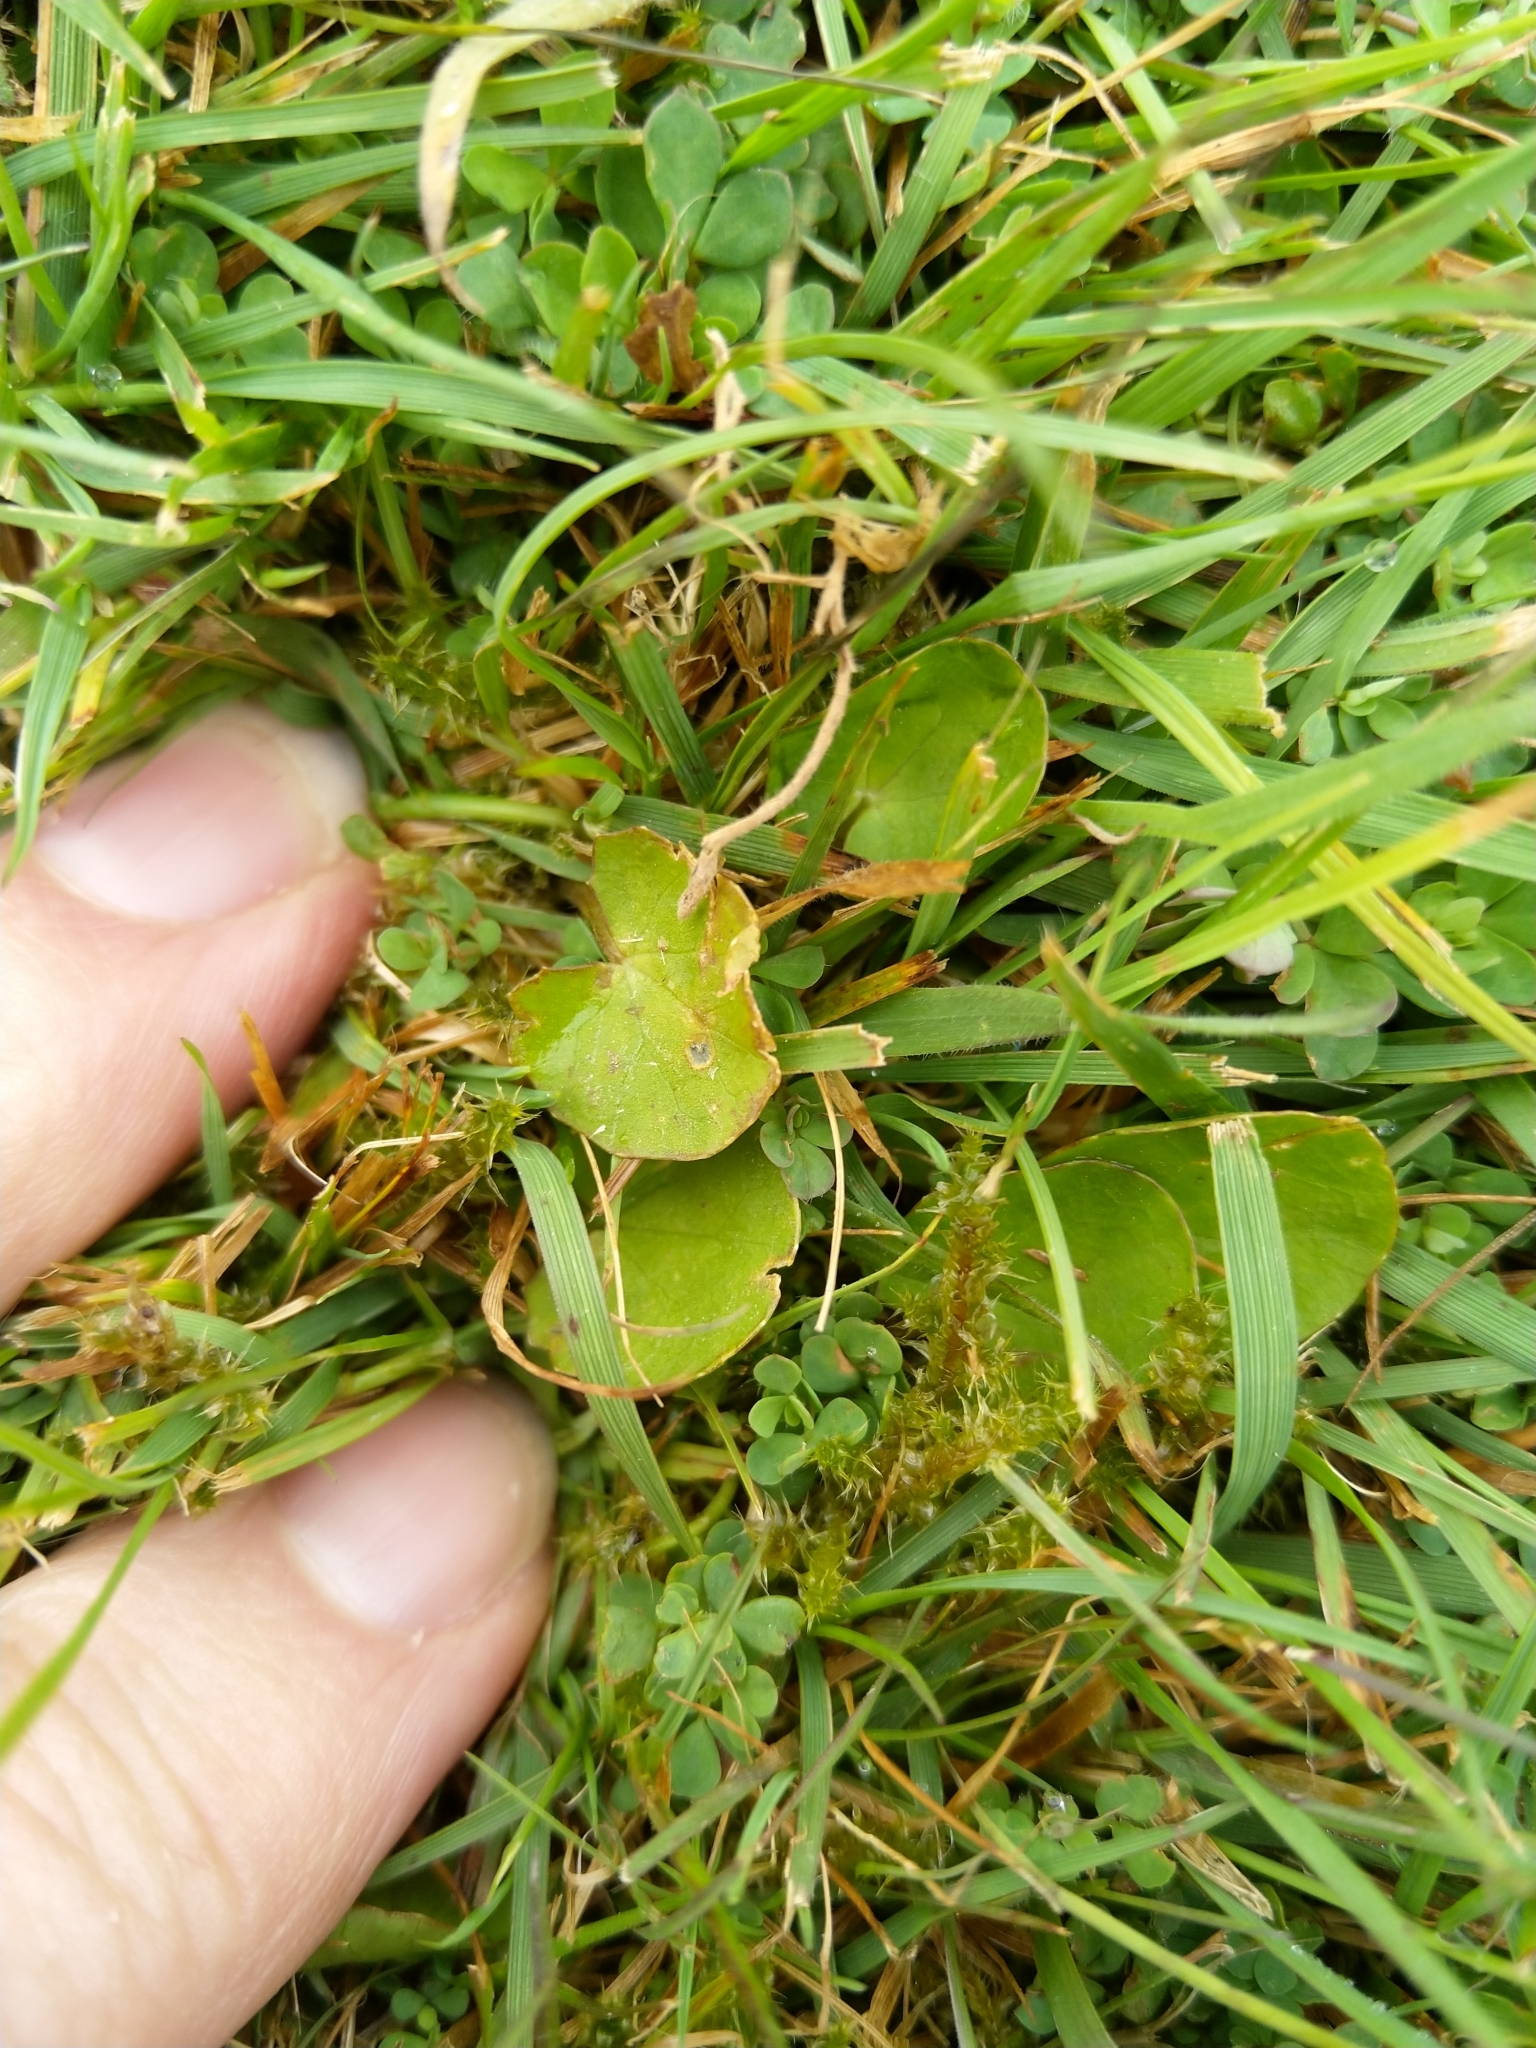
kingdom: Plantae
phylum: Tracheophyta
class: Magnoliopsida
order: Apiales
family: Apiaceae
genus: Centella
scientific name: Centella uniflora
